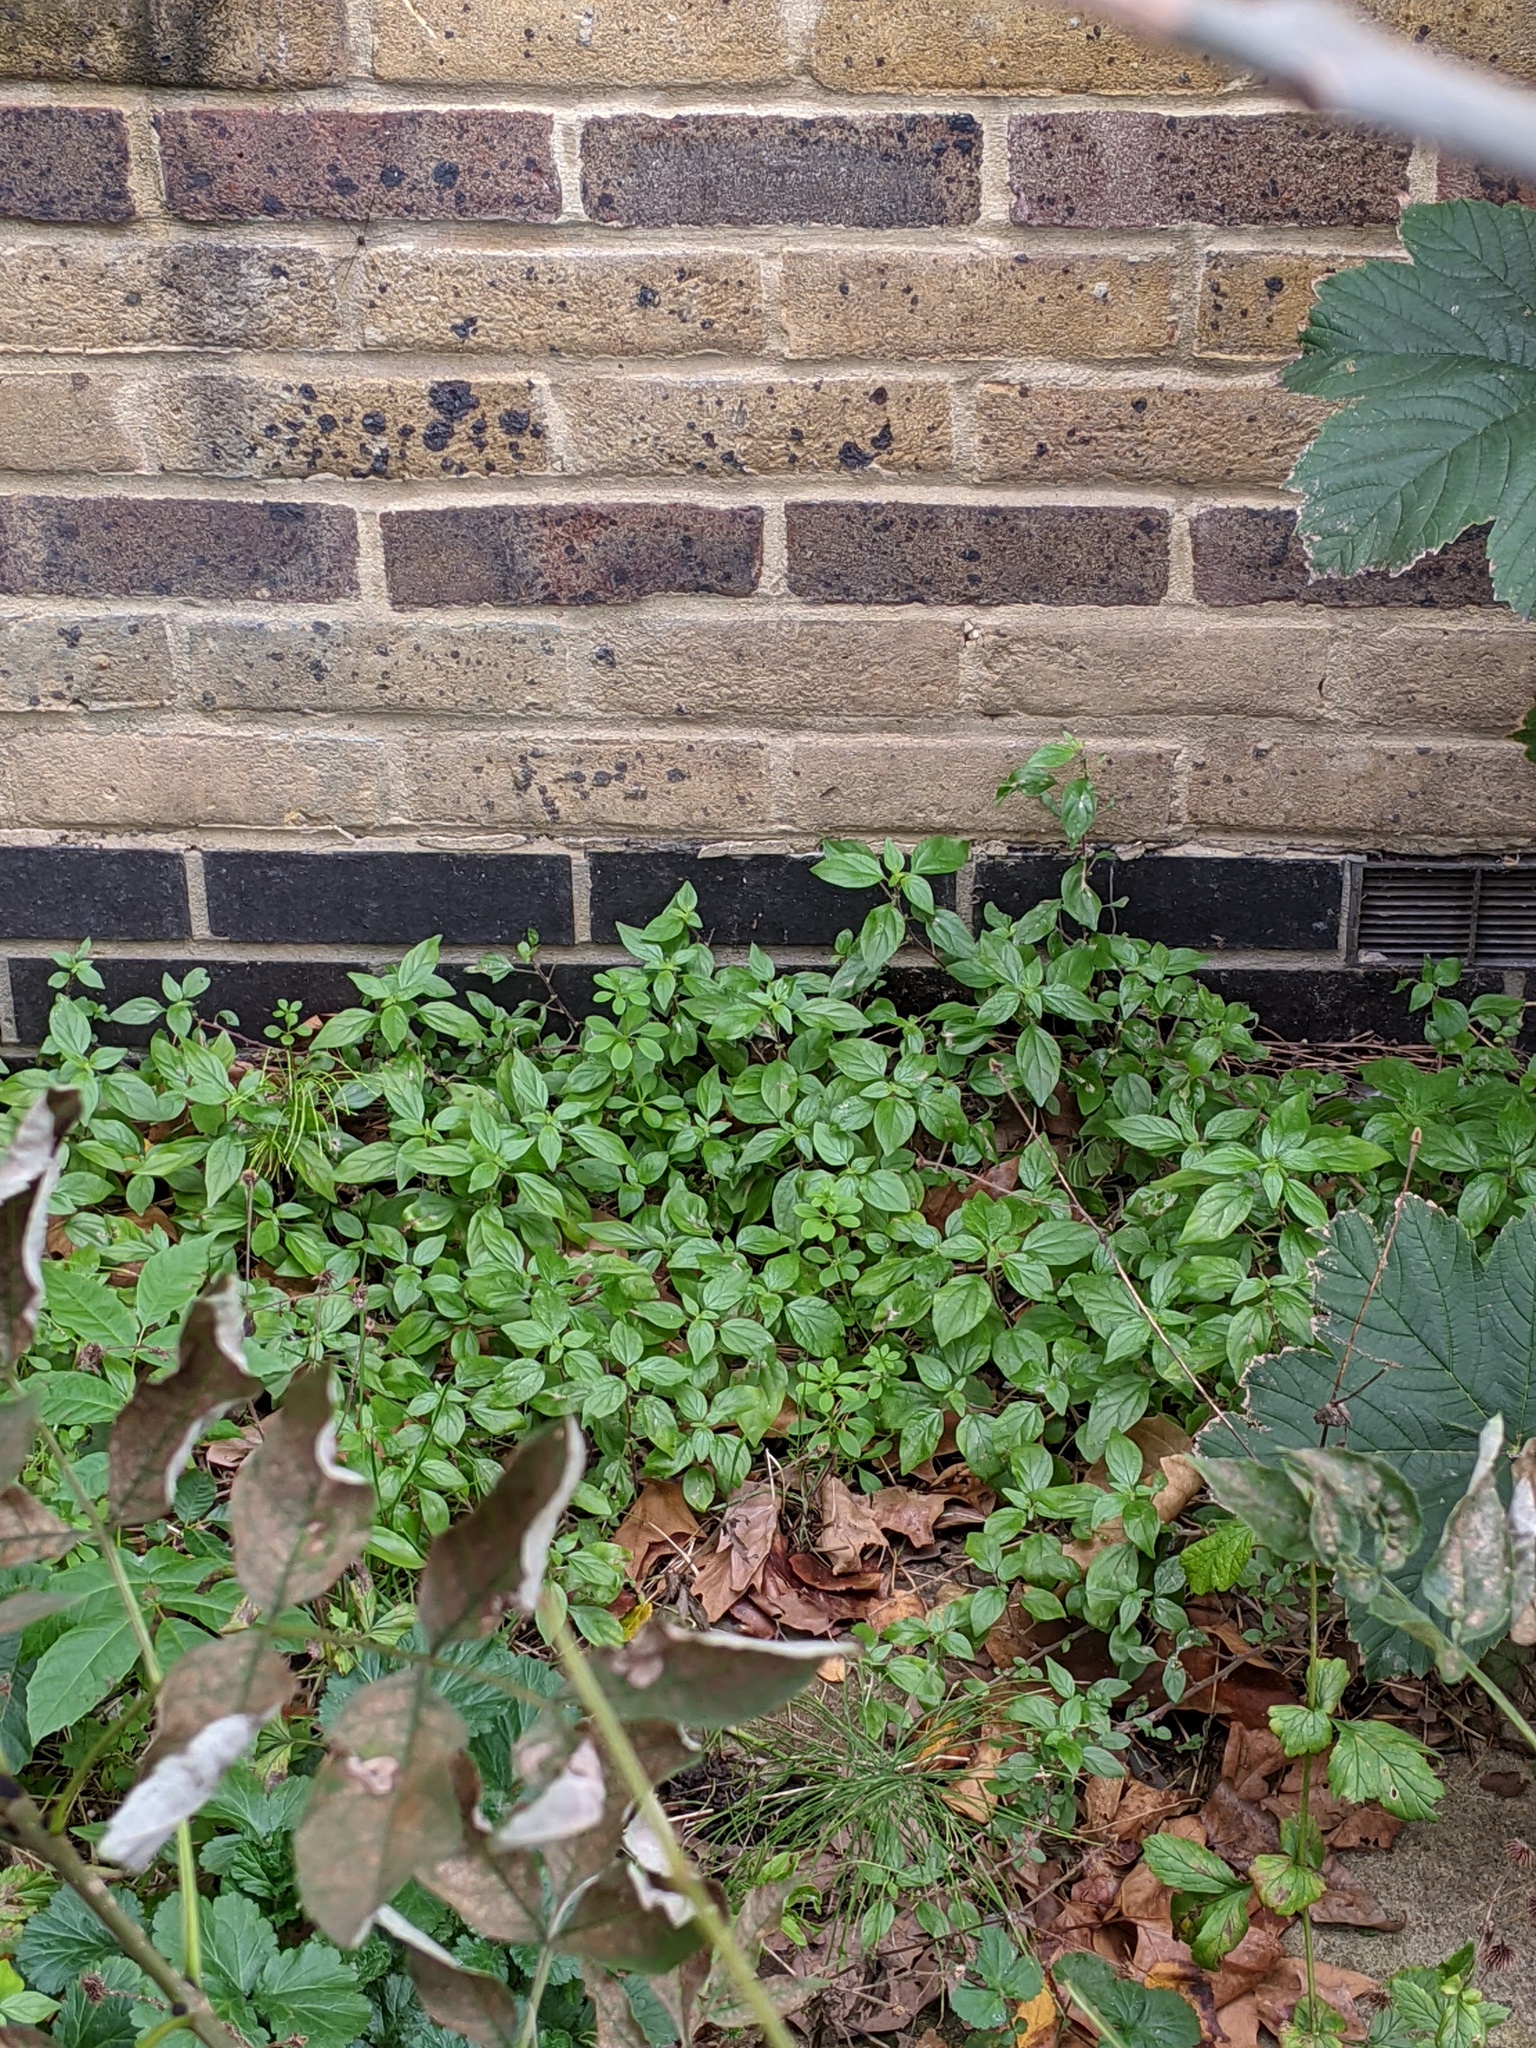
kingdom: Plantae
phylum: Tracheophyta
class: Magnoliopsida
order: Rosales
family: Urticaceae
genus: Parietaria
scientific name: Parietaria judaica
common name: Pellitory-of-the-wall
